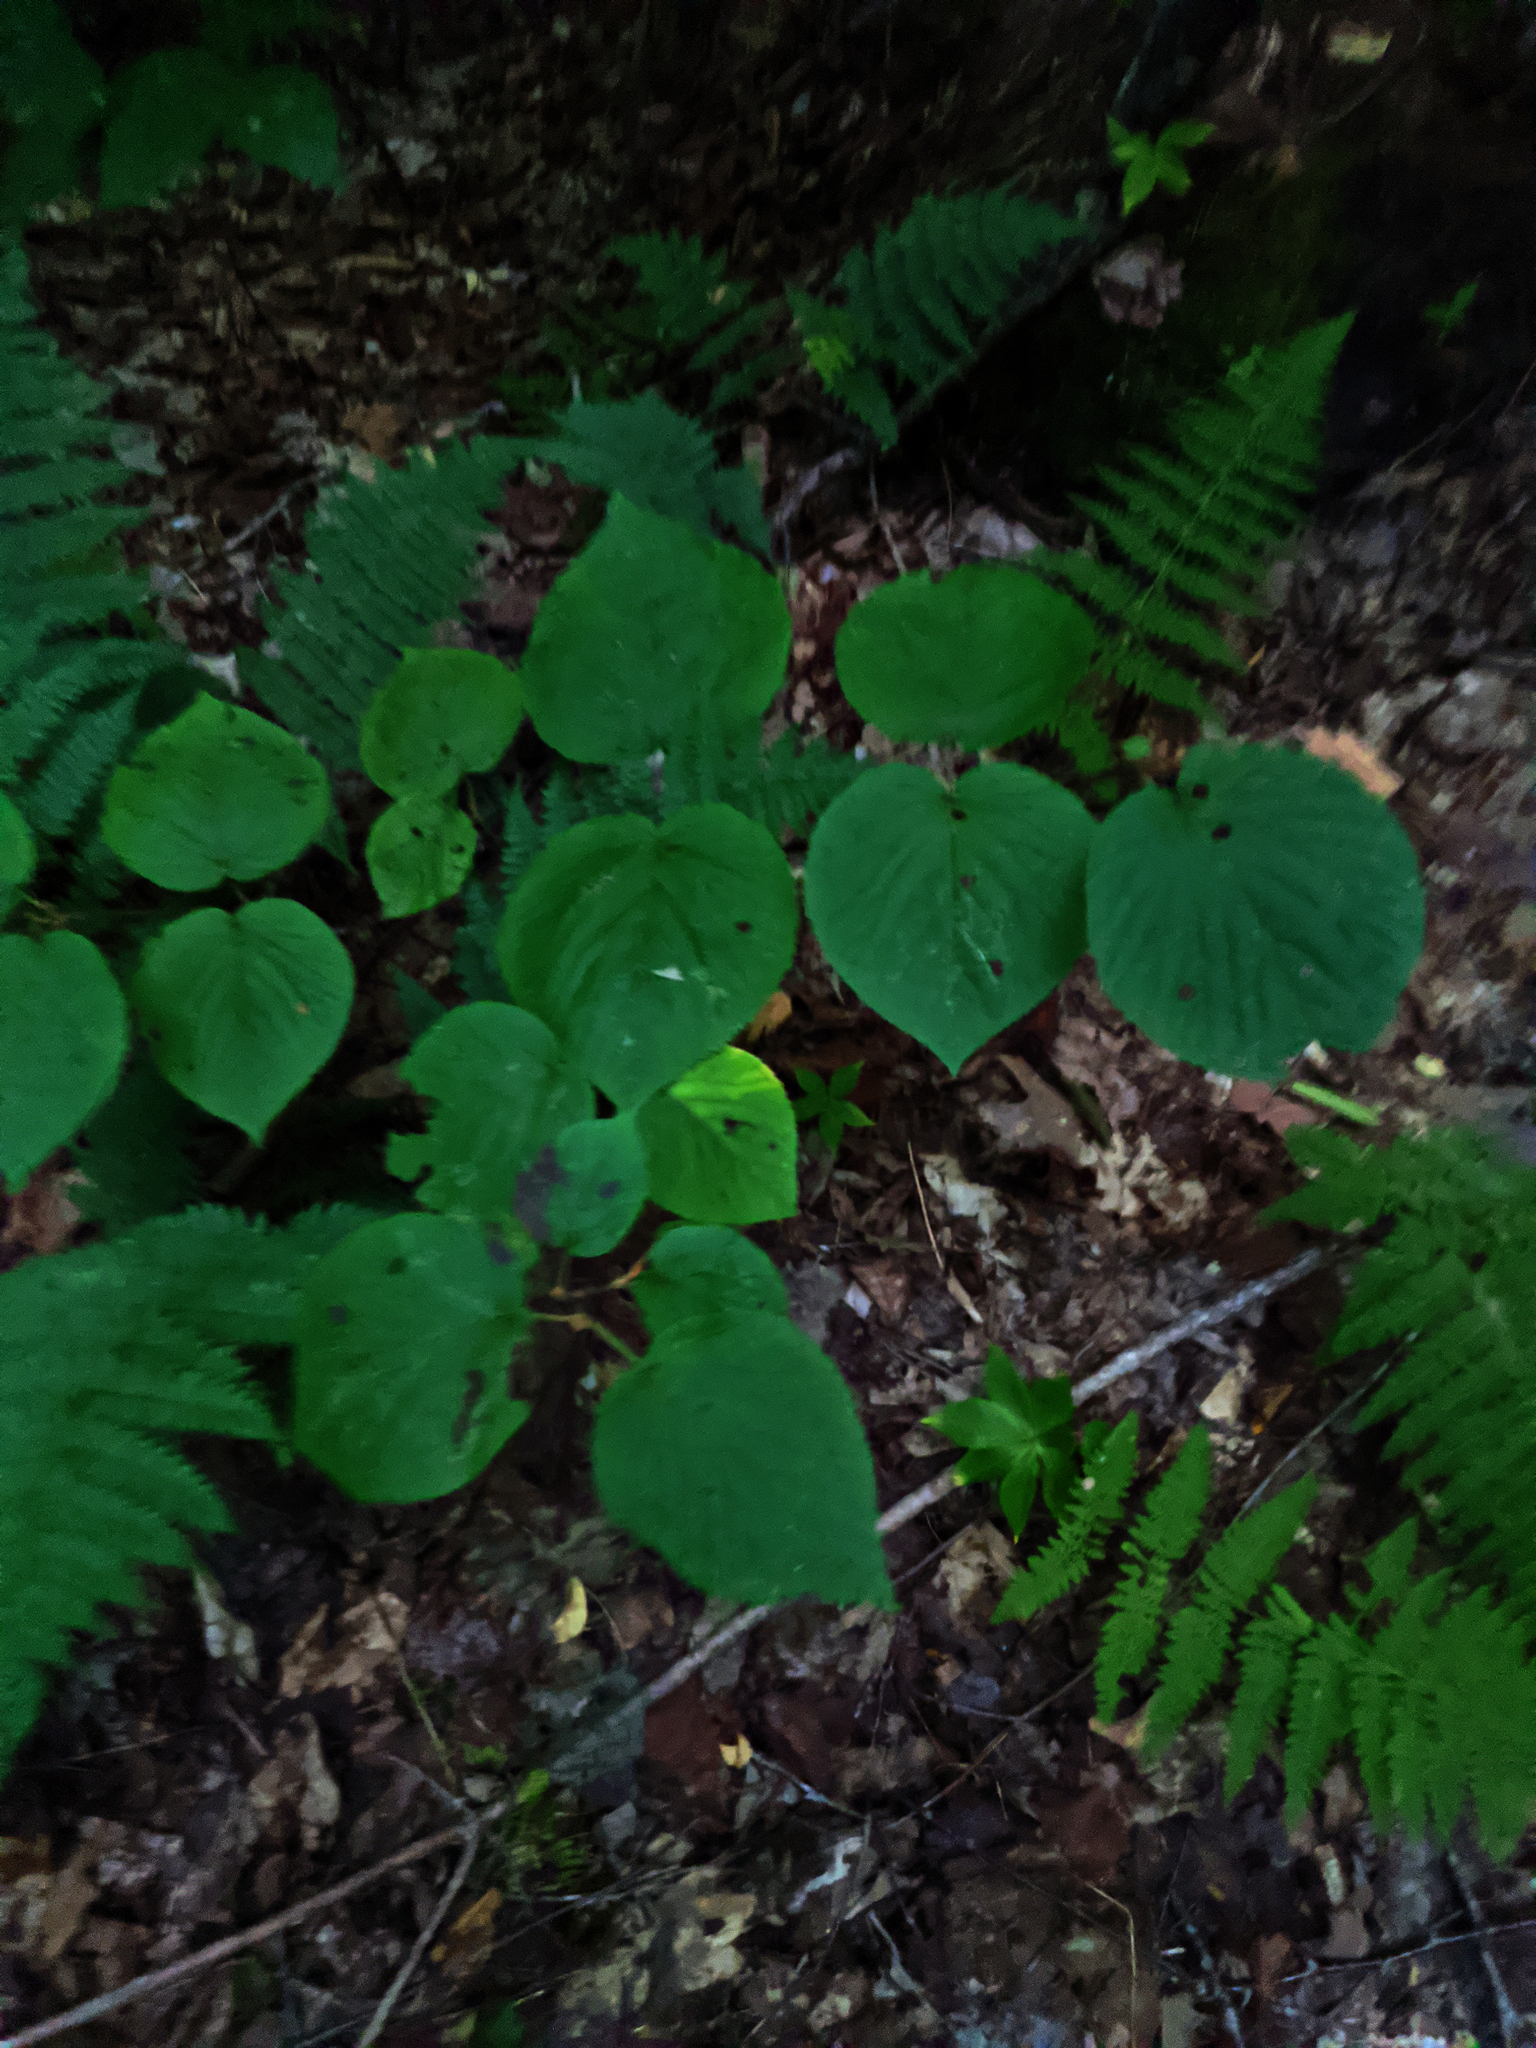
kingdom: Plantae
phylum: Tracheophyta
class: Magnoliopsida
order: Dipsacales
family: Viburnaceae
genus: Viburnum
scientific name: Viburnum lantanoides
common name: Hobblebush
